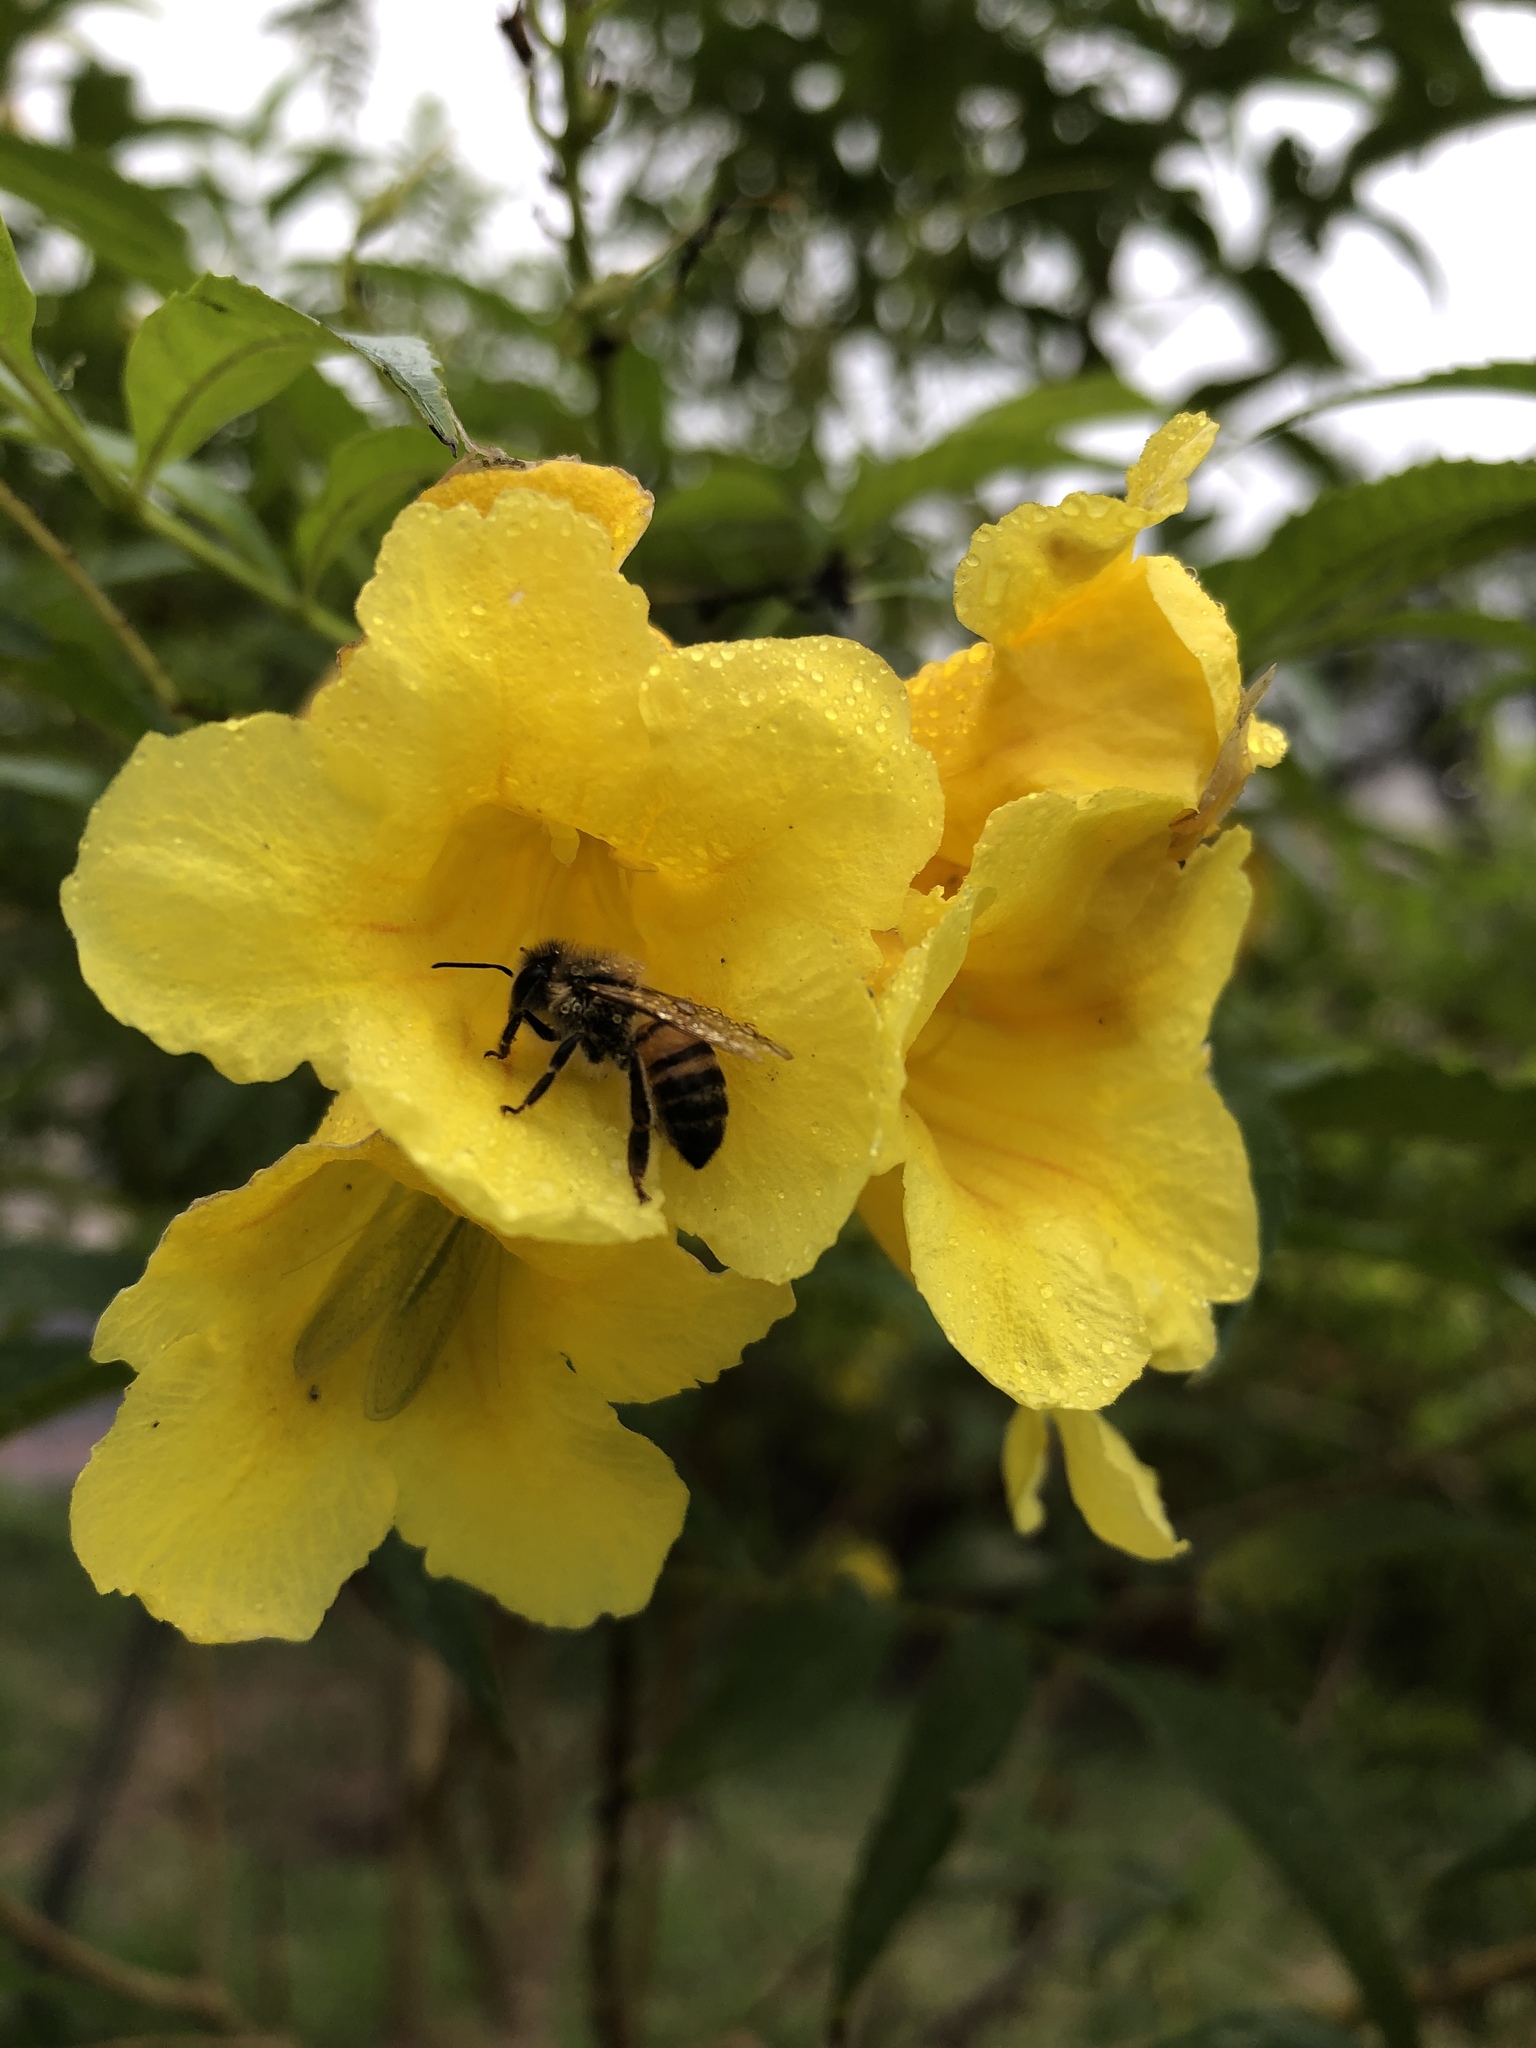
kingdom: Animalia
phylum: Arthropoda
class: Insecta
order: Hymenoptera
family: Apidae
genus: Apis
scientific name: Apis mellifera
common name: Honey bee
